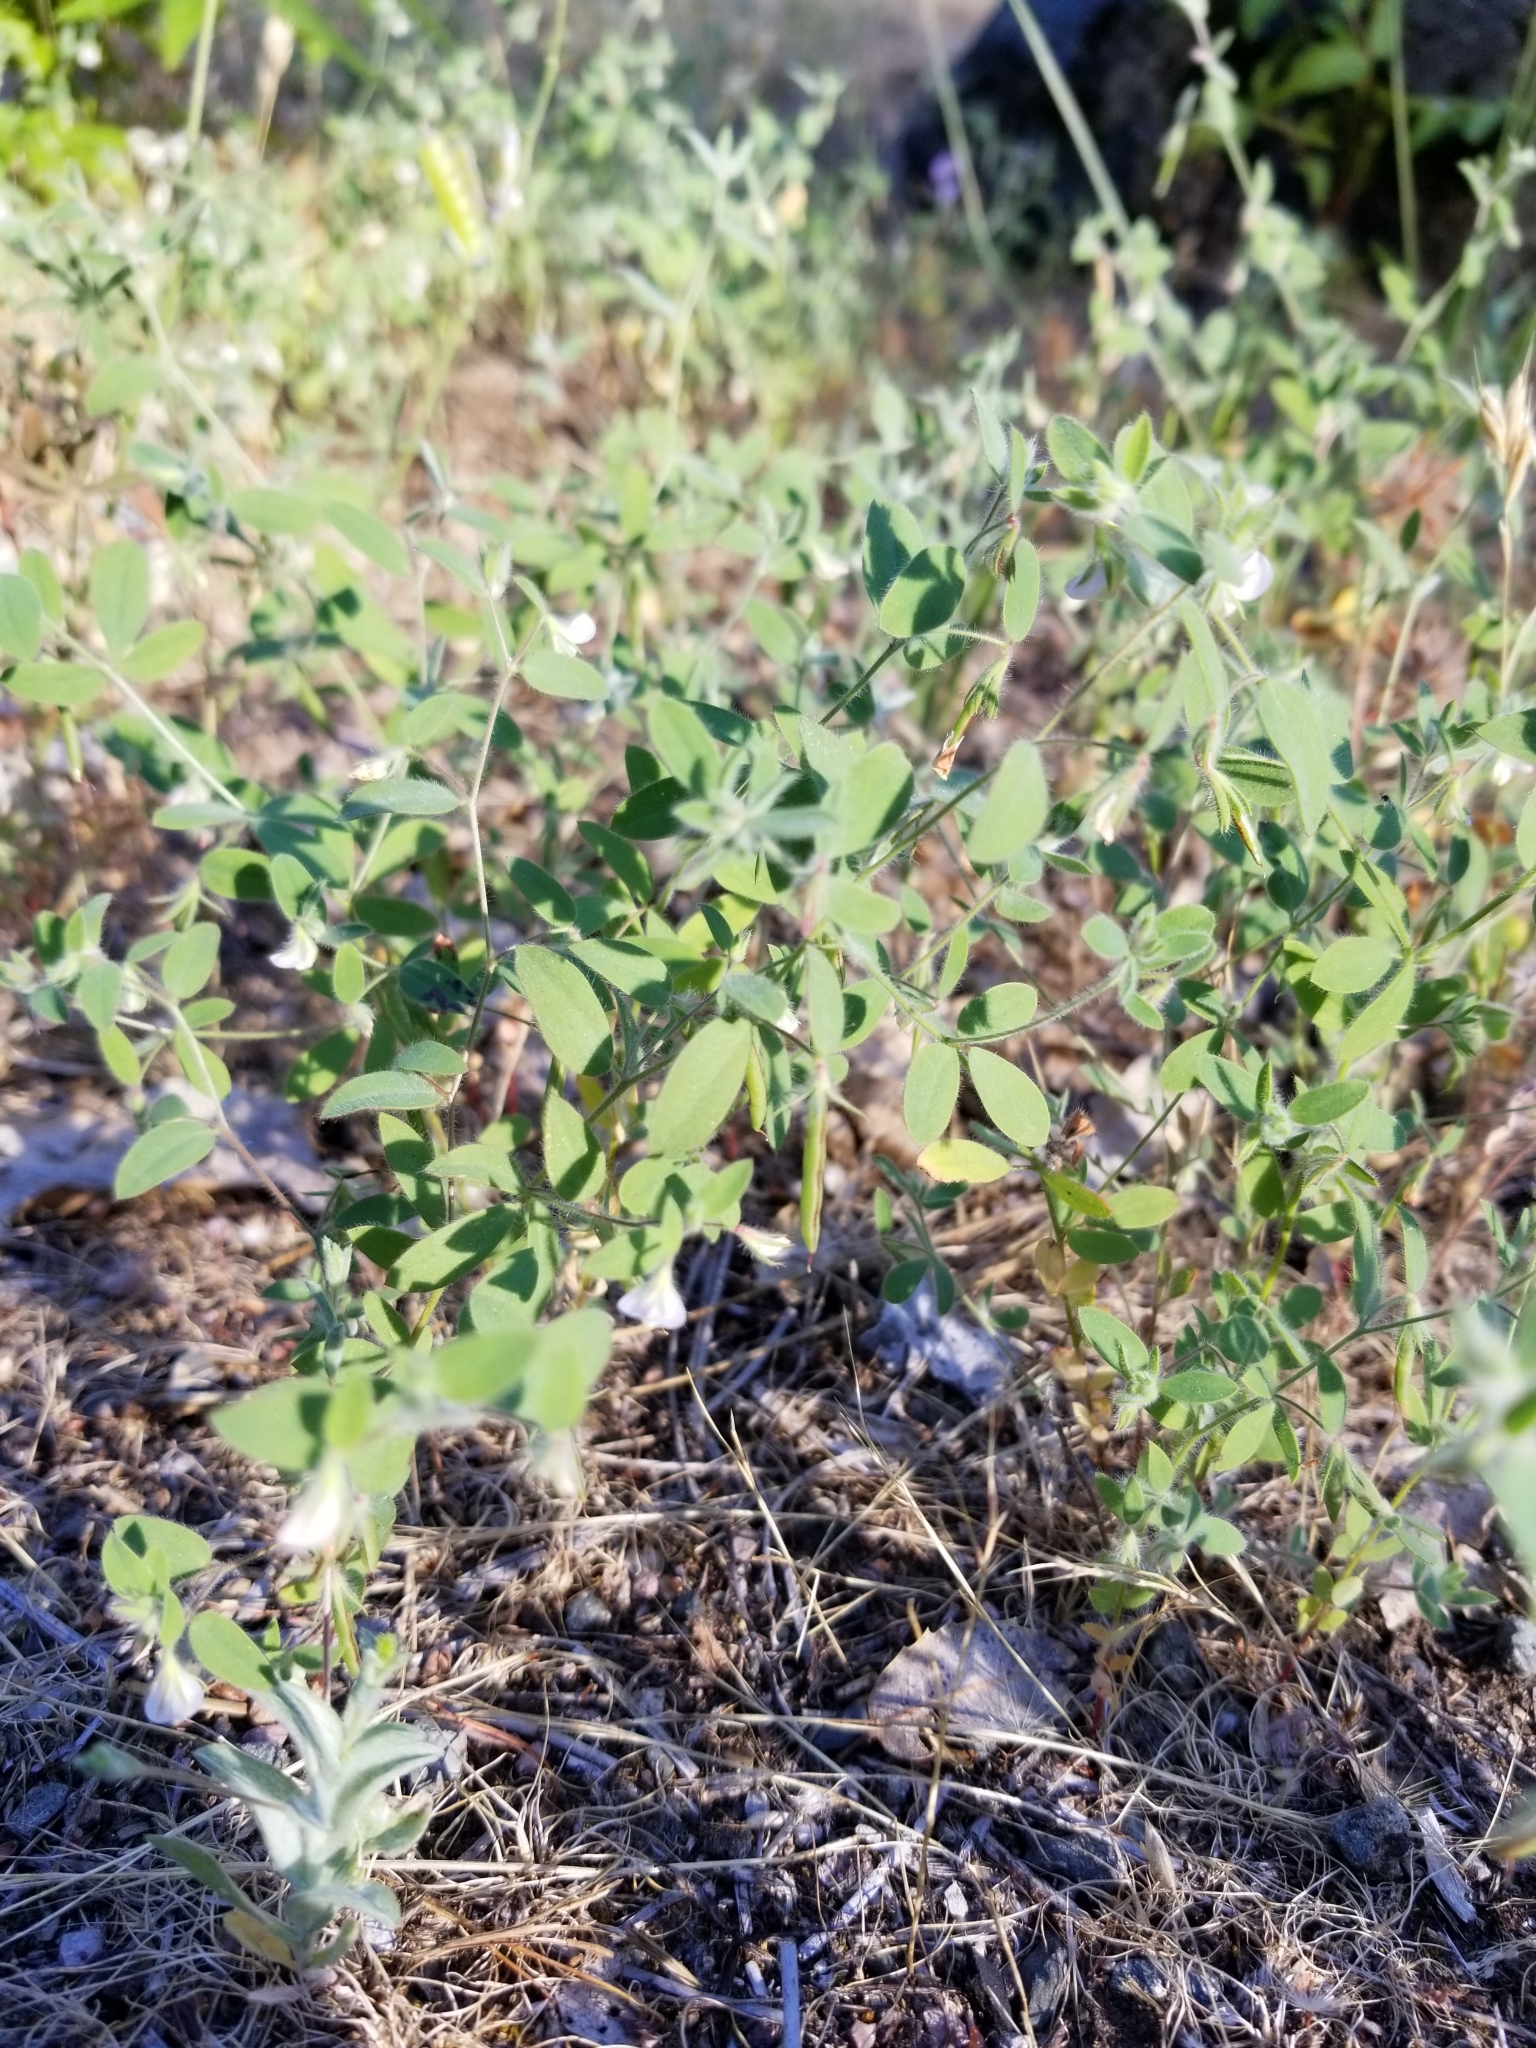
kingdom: Plantae
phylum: Tracheophyta
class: Magnoliopsida
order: Fabales
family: Fabaceae
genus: Acmispon
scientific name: Acmispon americanus
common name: American bird's-foot trefoil
